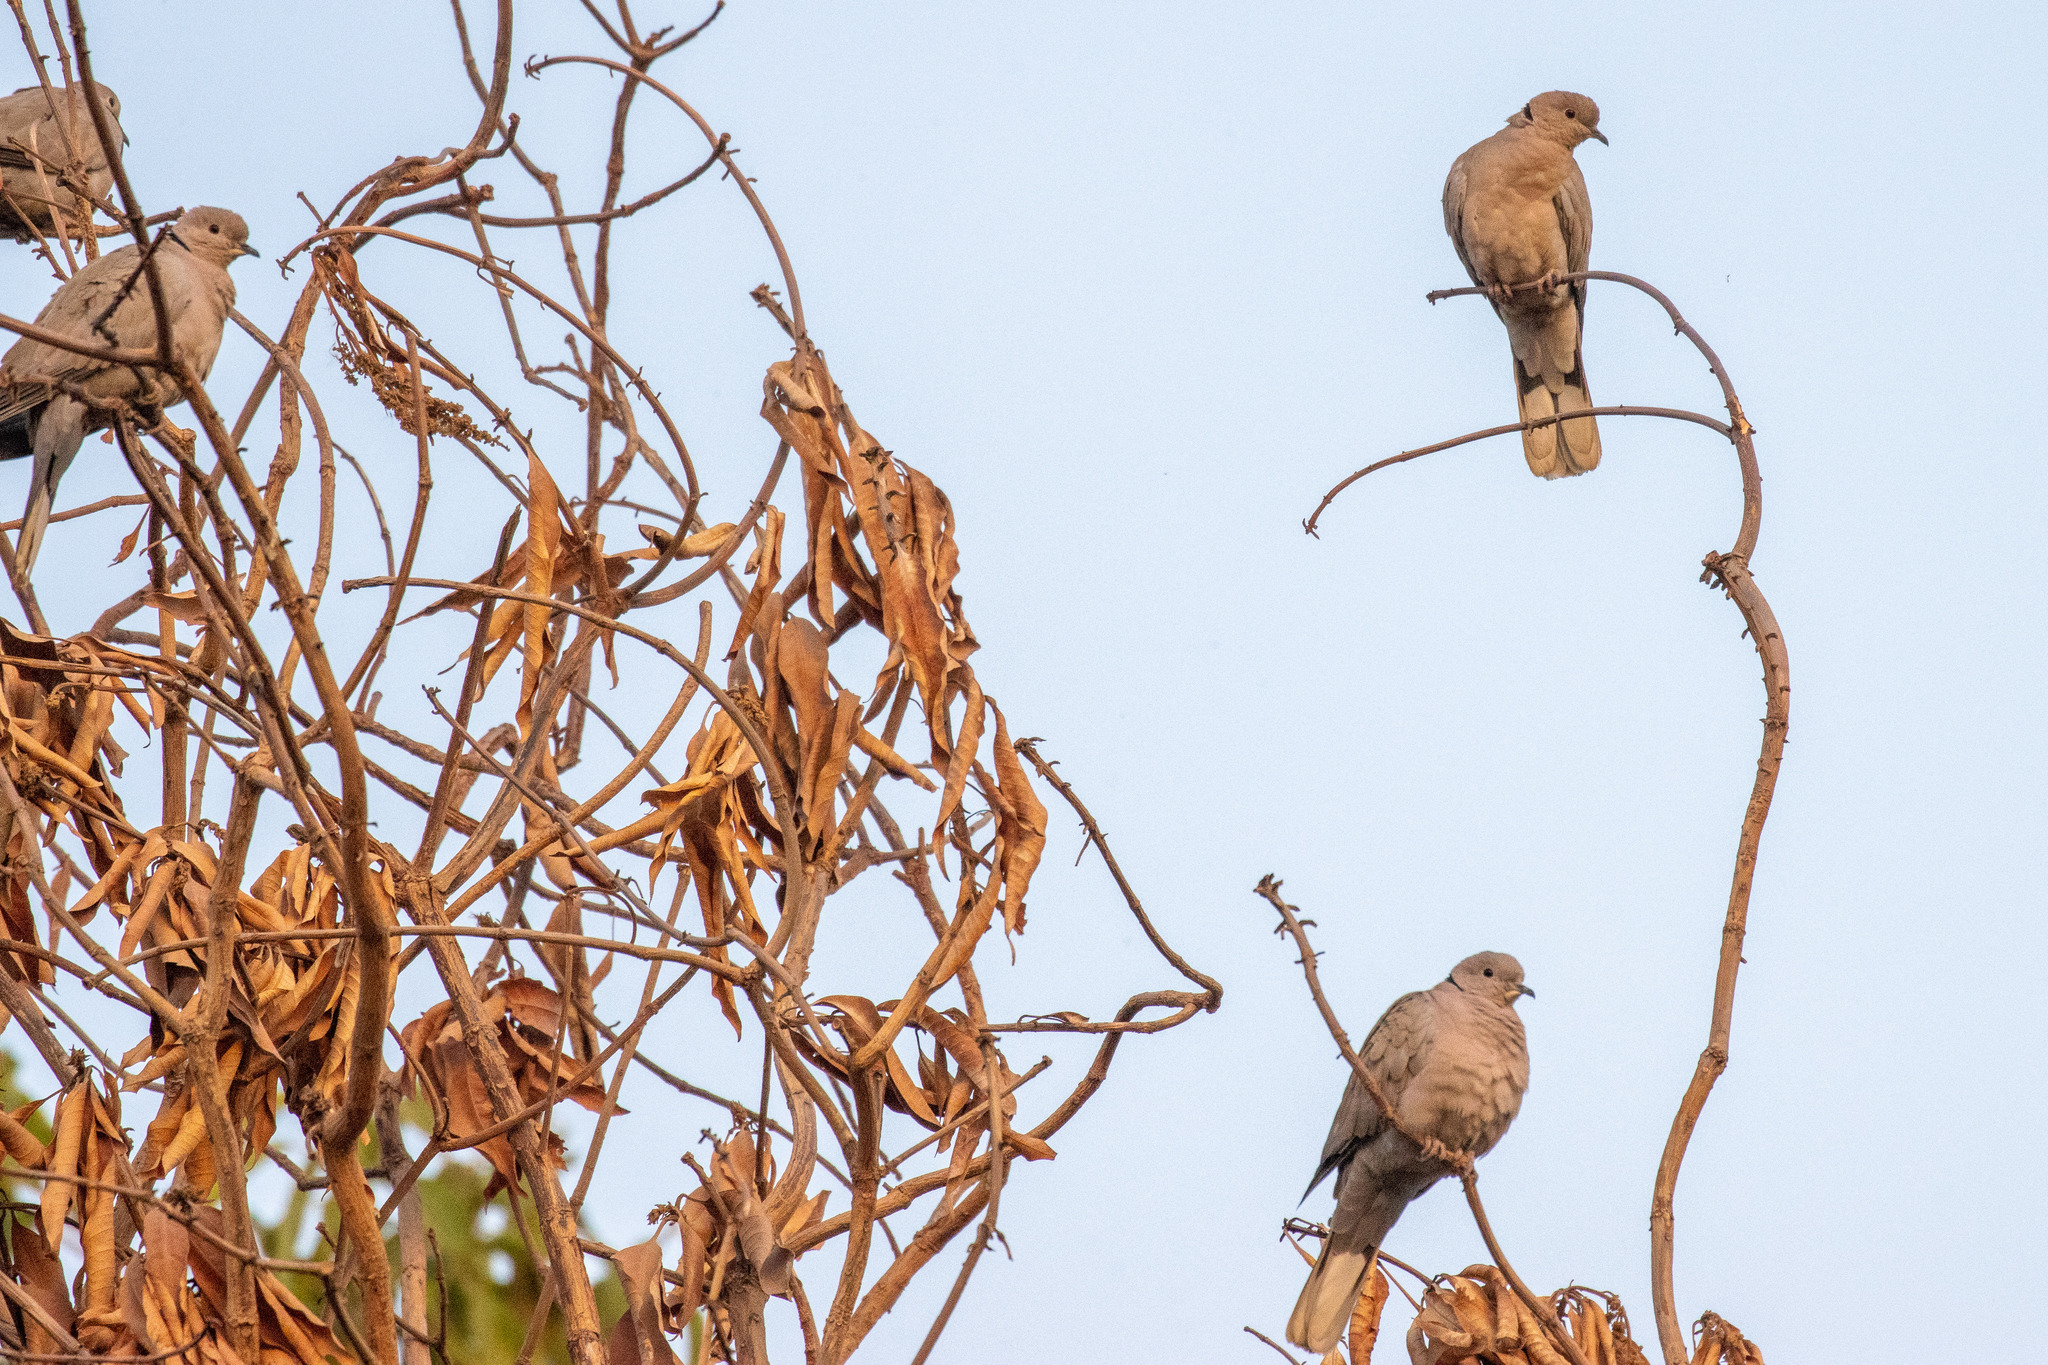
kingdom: Animalia
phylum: Chordata
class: Aves
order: Columbiformes
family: Columbidae
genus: Streptopelia
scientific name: Streptopelia decaocto
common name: Eurasian collared dove
